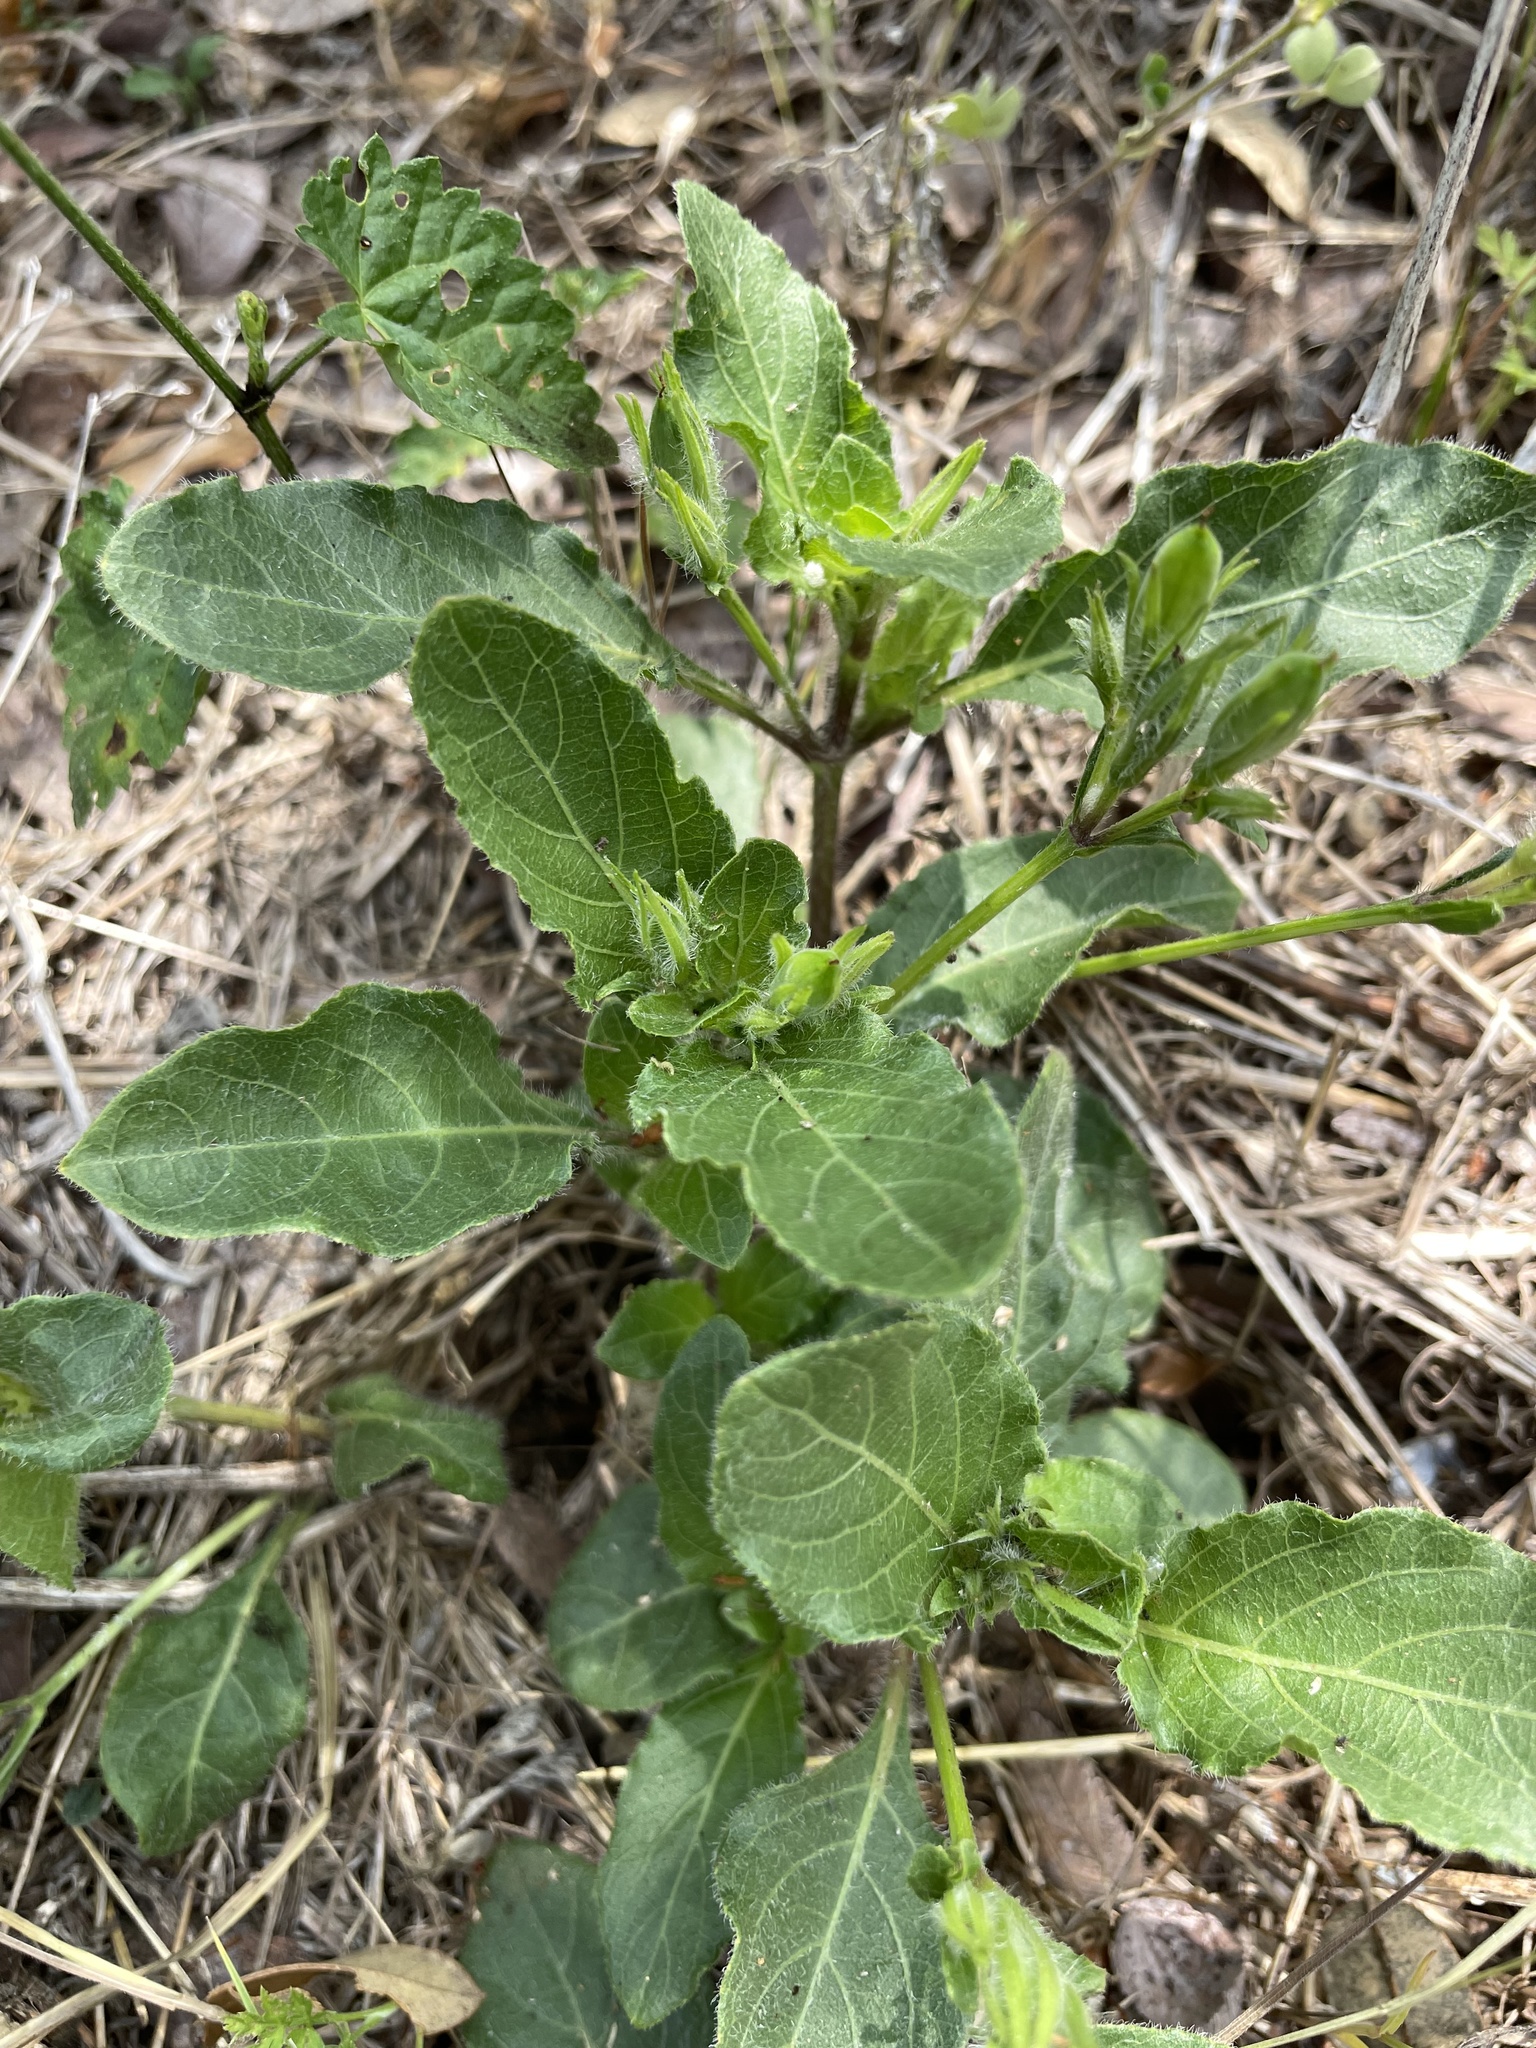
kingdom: Plantae
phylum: Tracheophyta
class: Magnoliopsida
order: Lamiales
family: Acanthaceae
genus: Ruellia
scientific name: Ruellia ciliatiflora
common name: Hairyflower wild petunia
